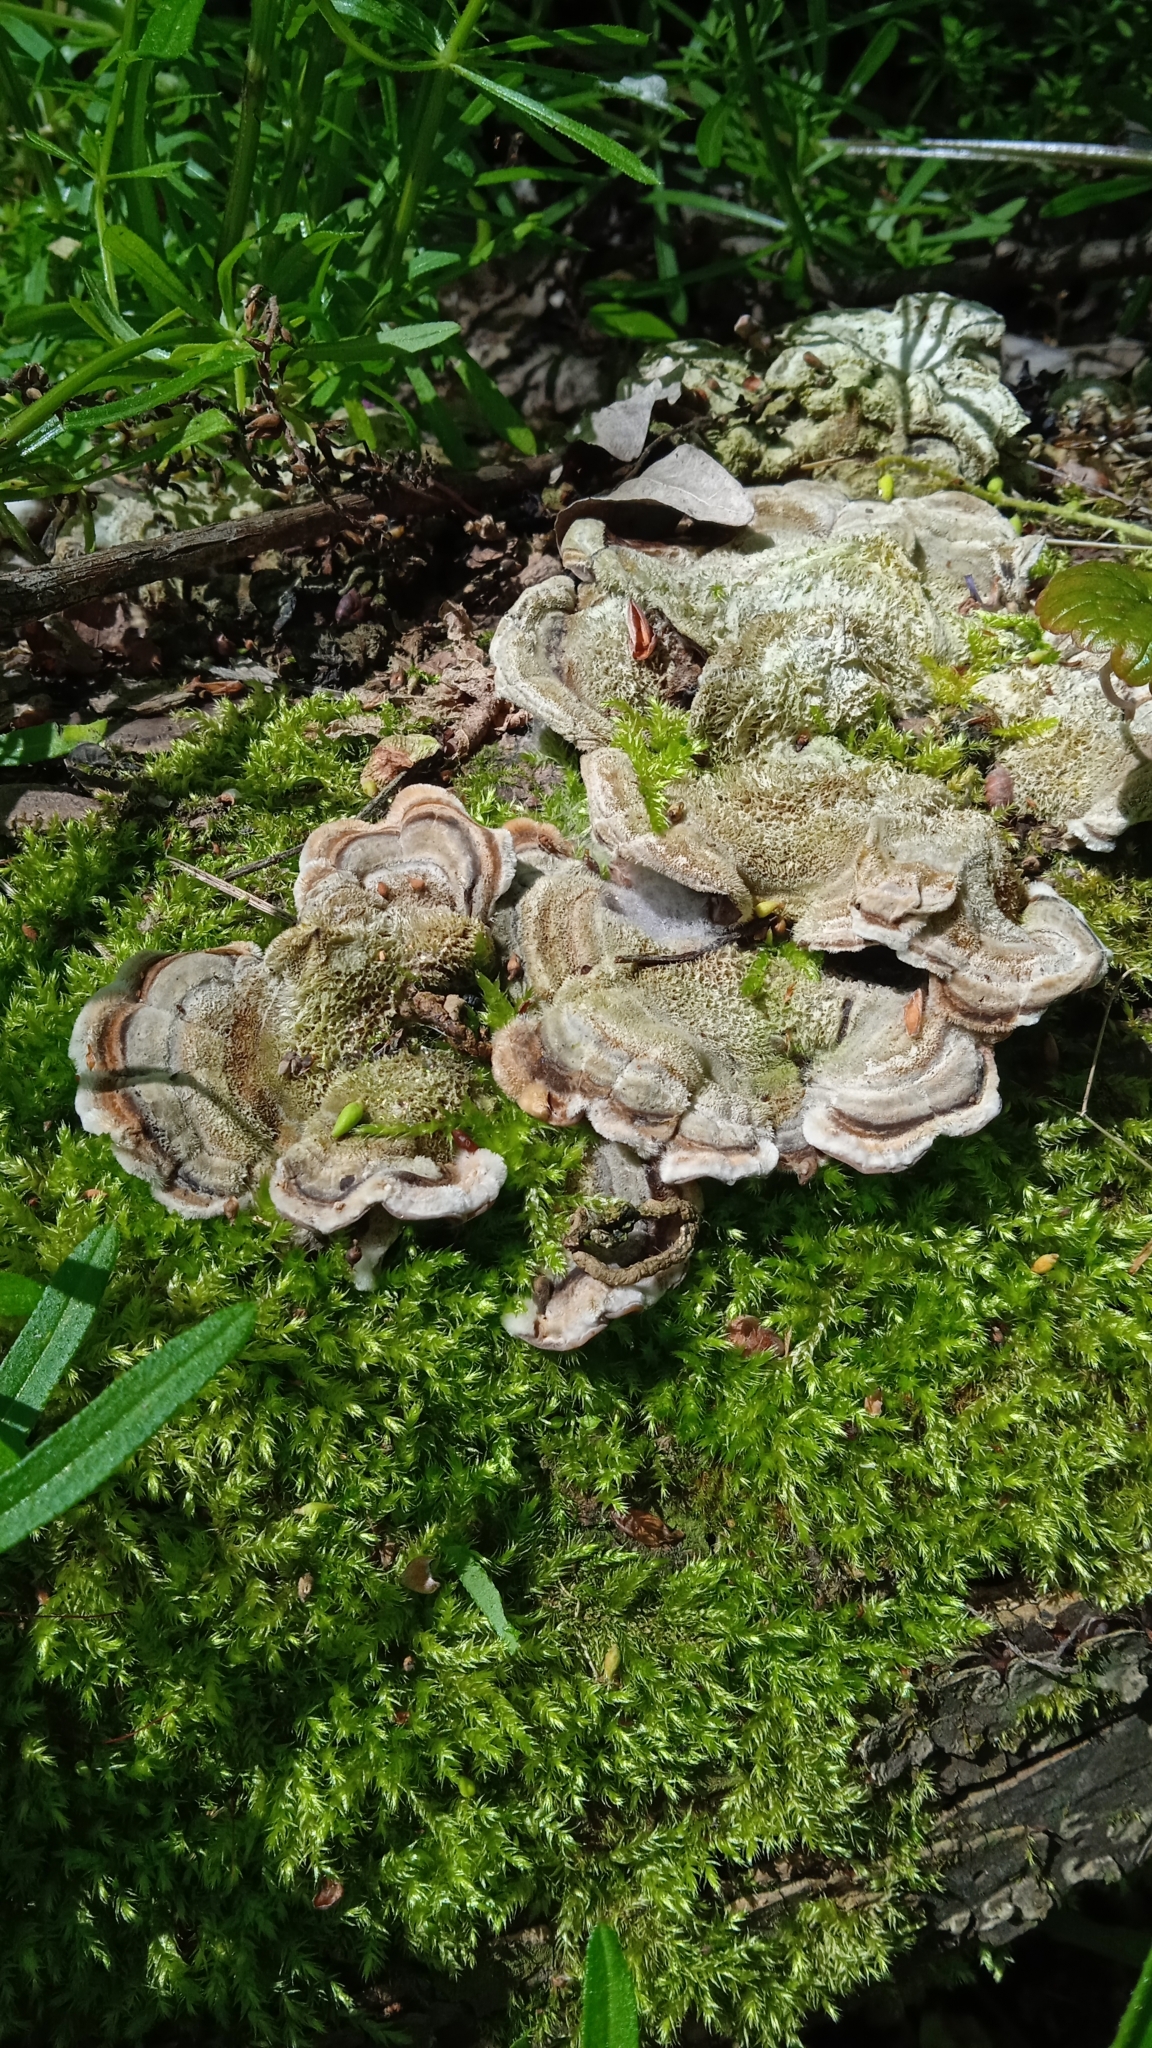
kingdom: Fungi
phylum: Basidiomycota
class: Agaricomycetes
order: Auriculariales
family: Auriculariaceae
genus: Auricularia
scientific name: Auricularia mesenterica
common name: Tripe fungus
